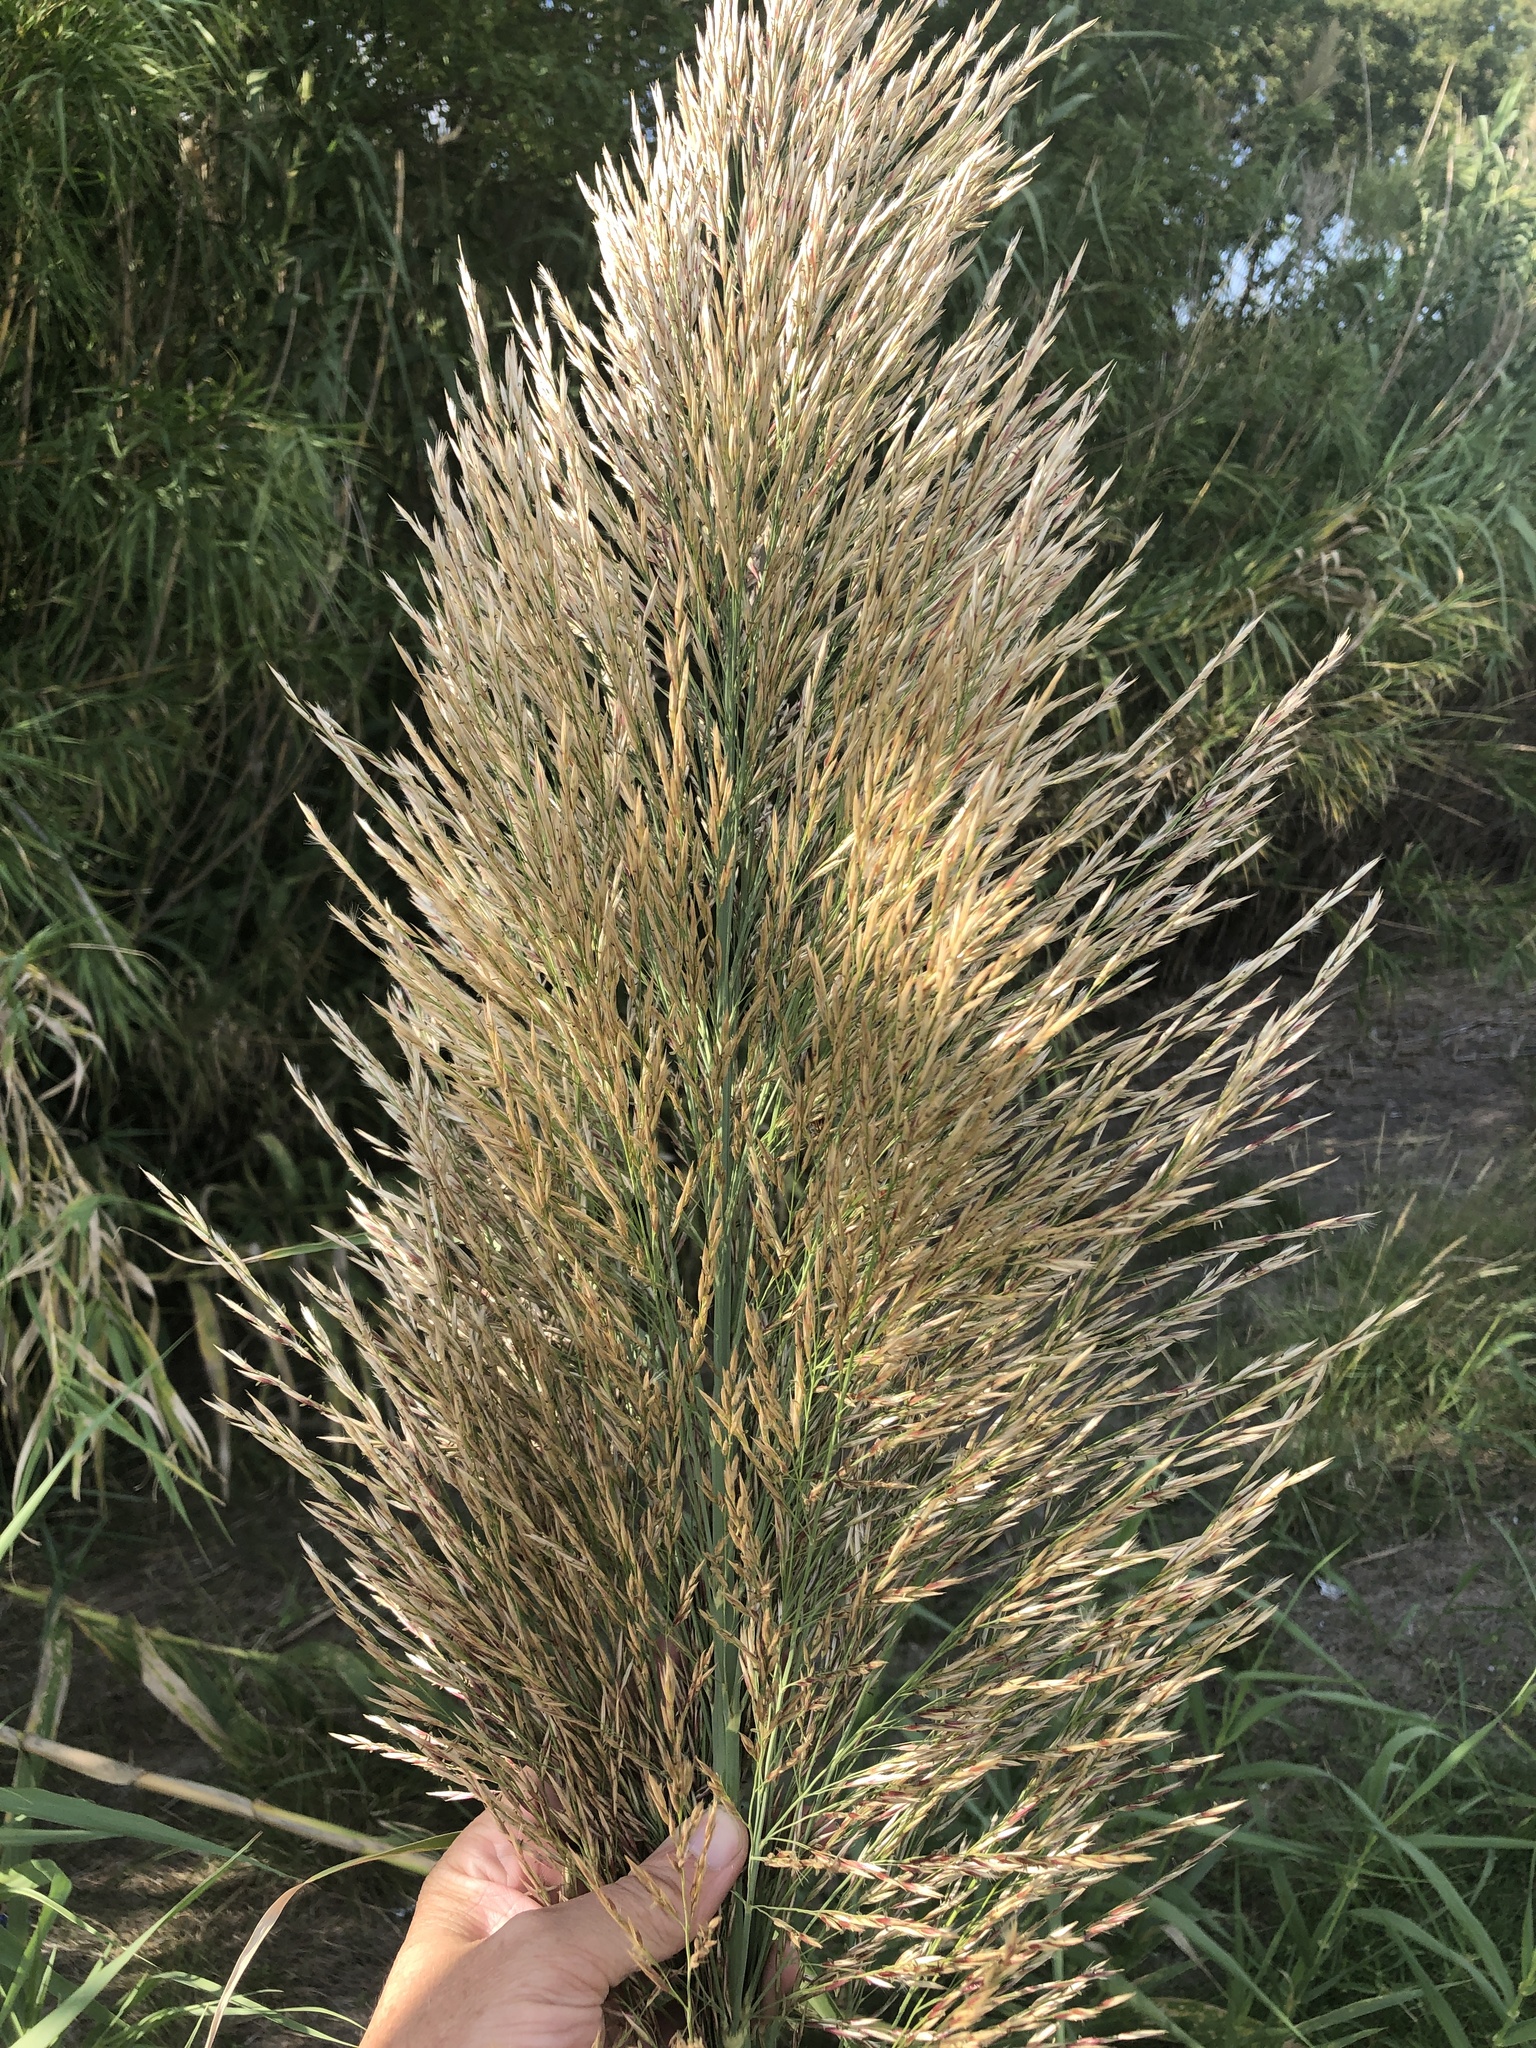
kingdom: Plantae
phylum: Tracheophyta
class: Liliopsida
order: Poales
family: Poaceae
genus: Arundo
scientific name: Arundo donax
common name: Giant reed
